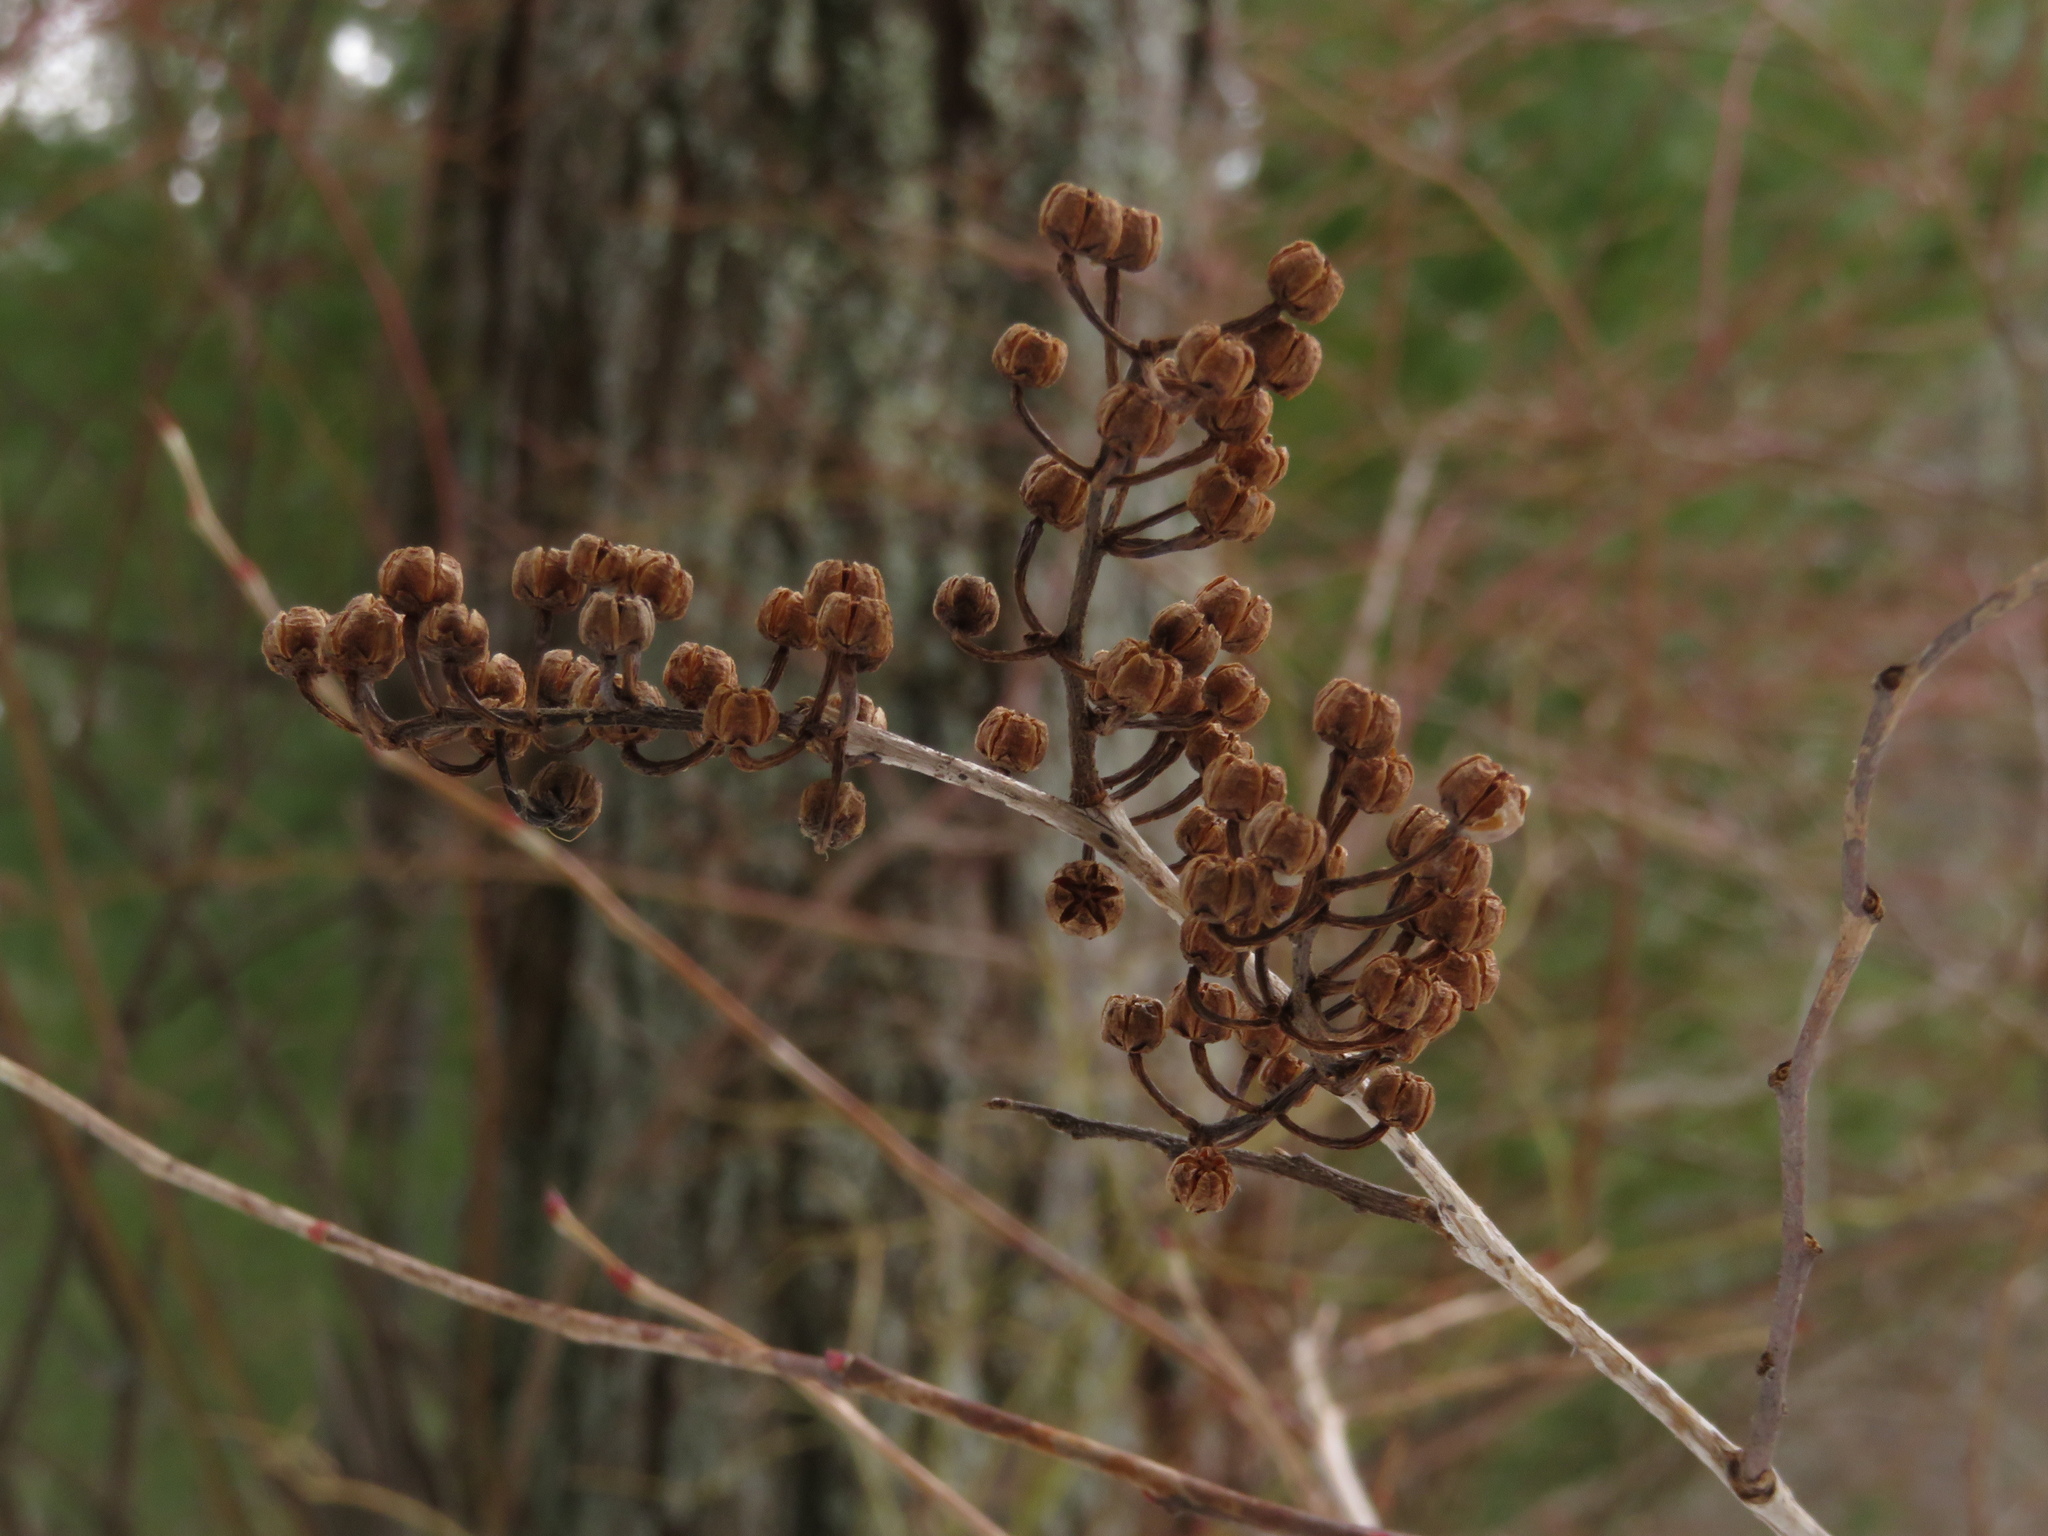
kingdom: Plantae
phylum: Tracheophyta
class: Magnoliopsida
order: Ericales
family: Ericaceae
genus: Lyonia
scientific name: Lyonia ligustrina
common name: Maleberry
